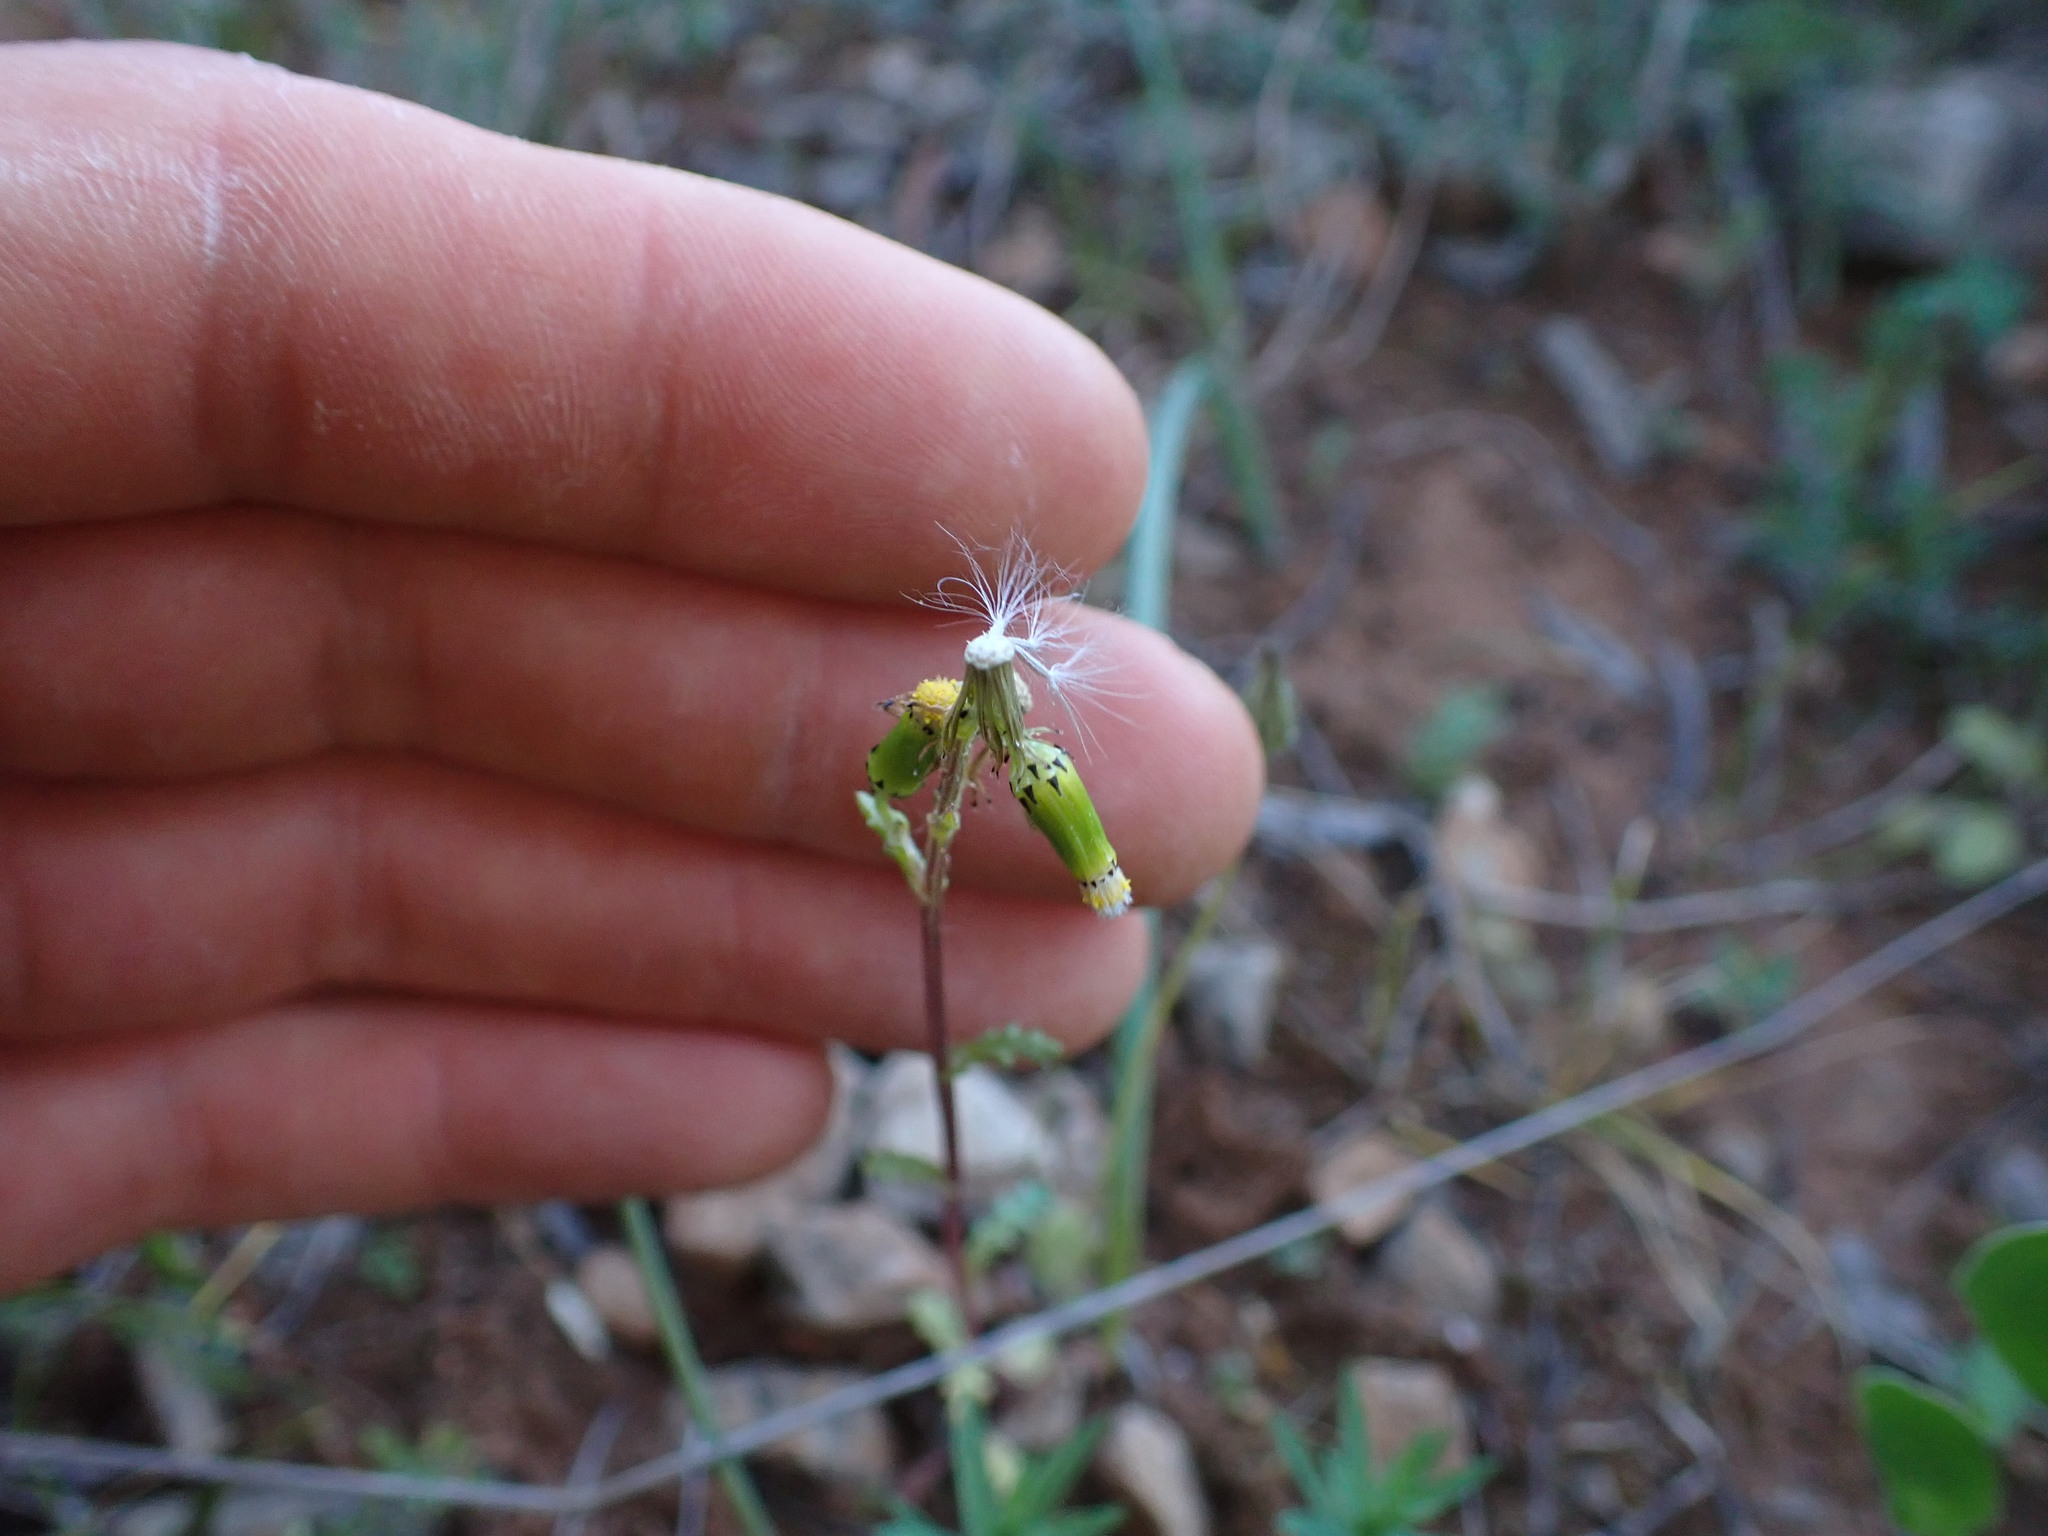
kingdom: Plantae
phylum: Tracheophyta
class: Magnoliopsida
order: Asterales
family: Asteraceae
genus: Senecio
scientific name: Senecio vulgaris
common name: Old-man-in-the-spring
